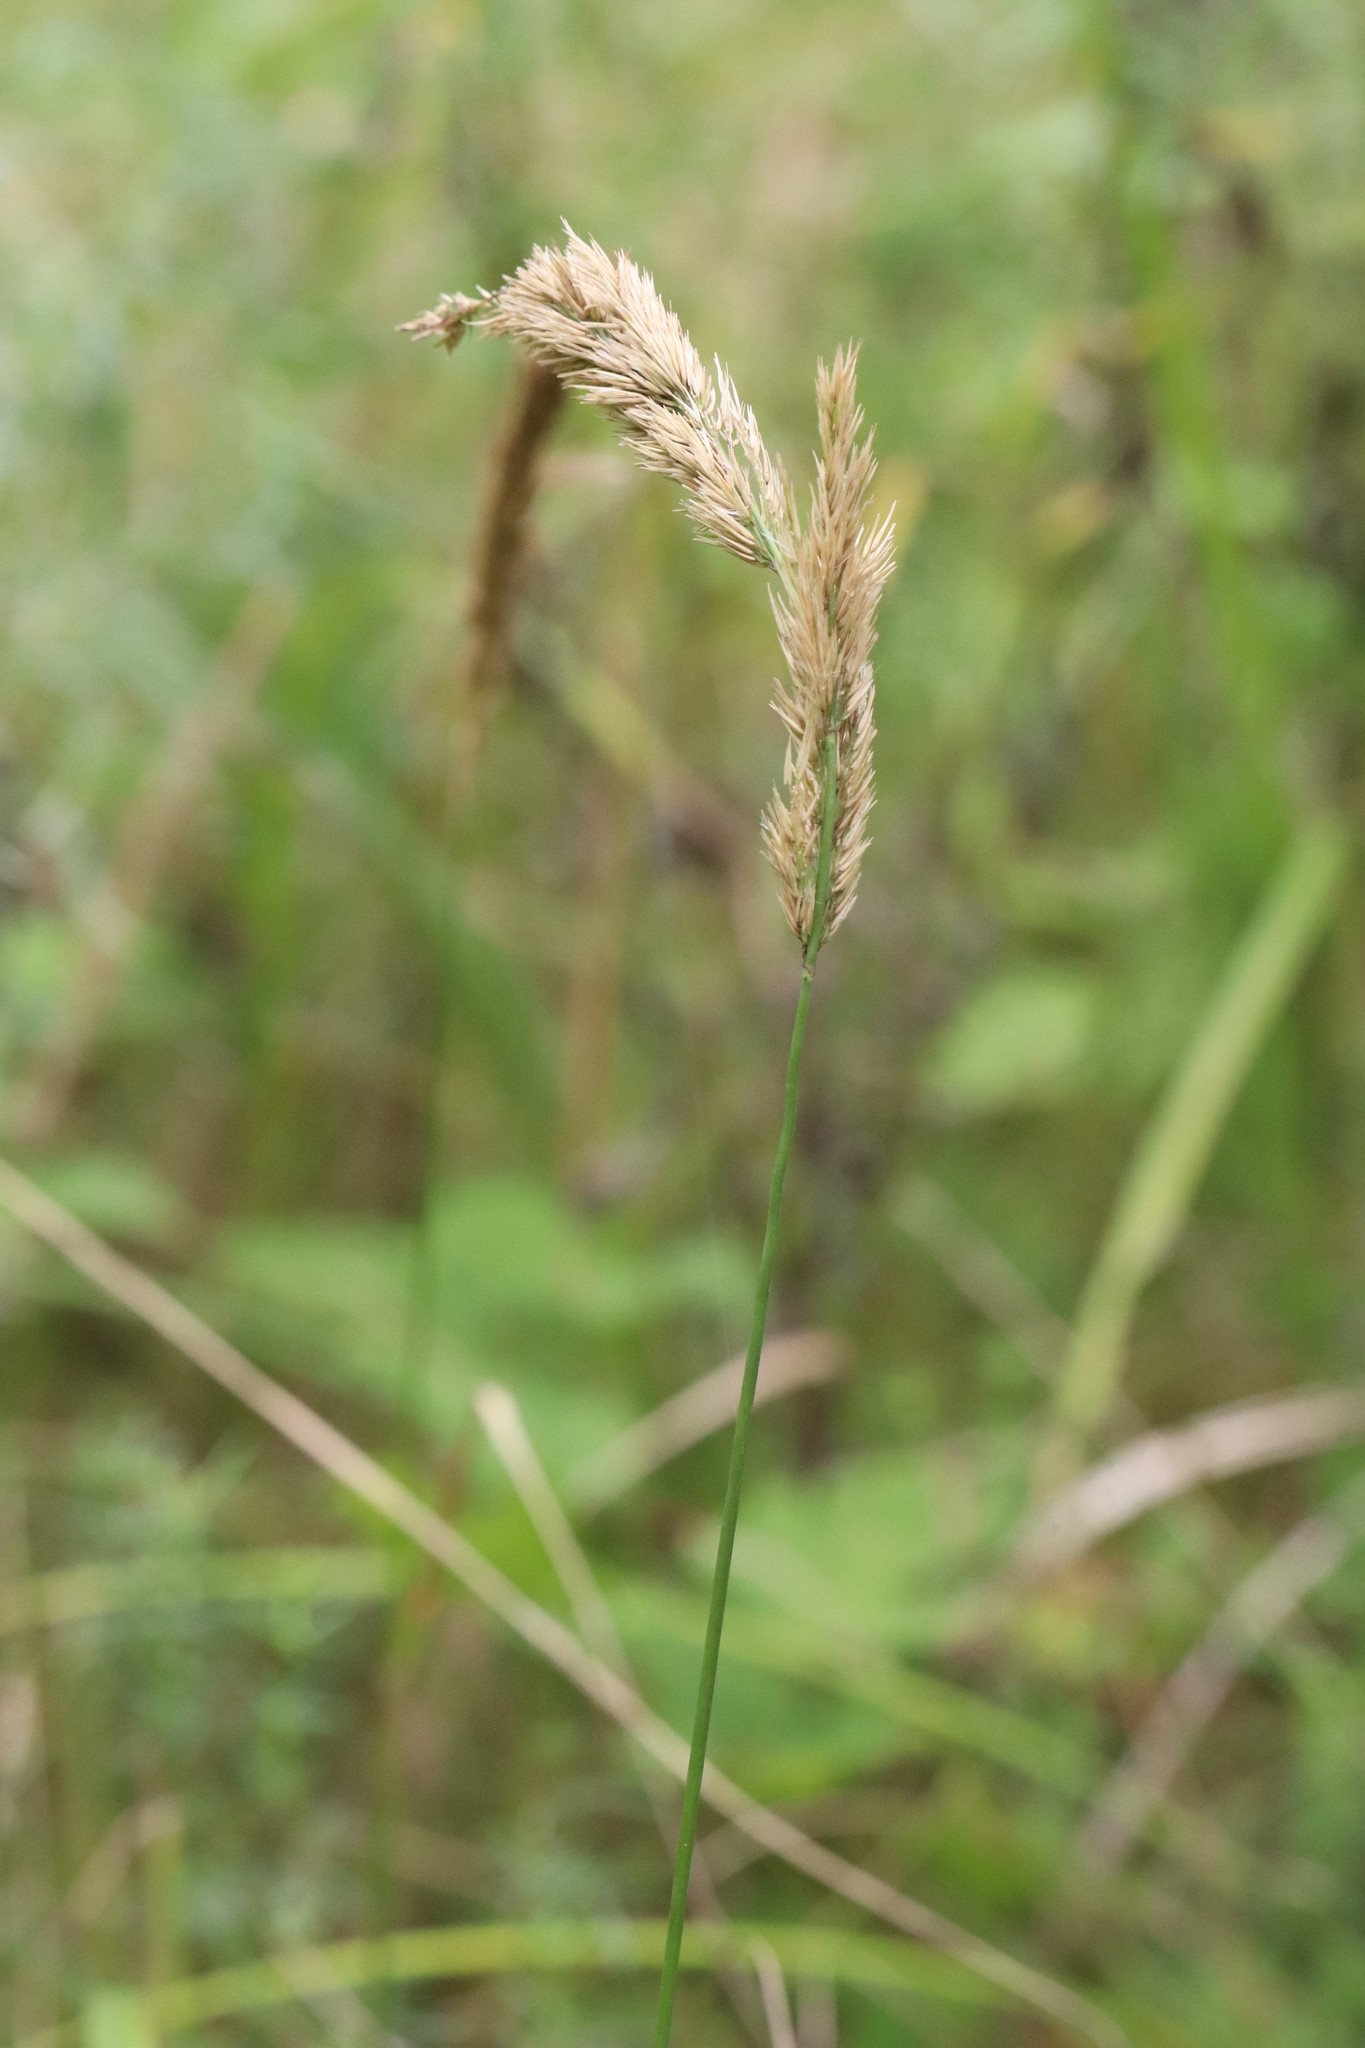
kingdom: Plantae
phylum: Tracheophyta
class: Liliopsida
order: Poales
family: Poaceae
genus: Calamagrostis
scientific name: Calamagrostis extremiorientalis
